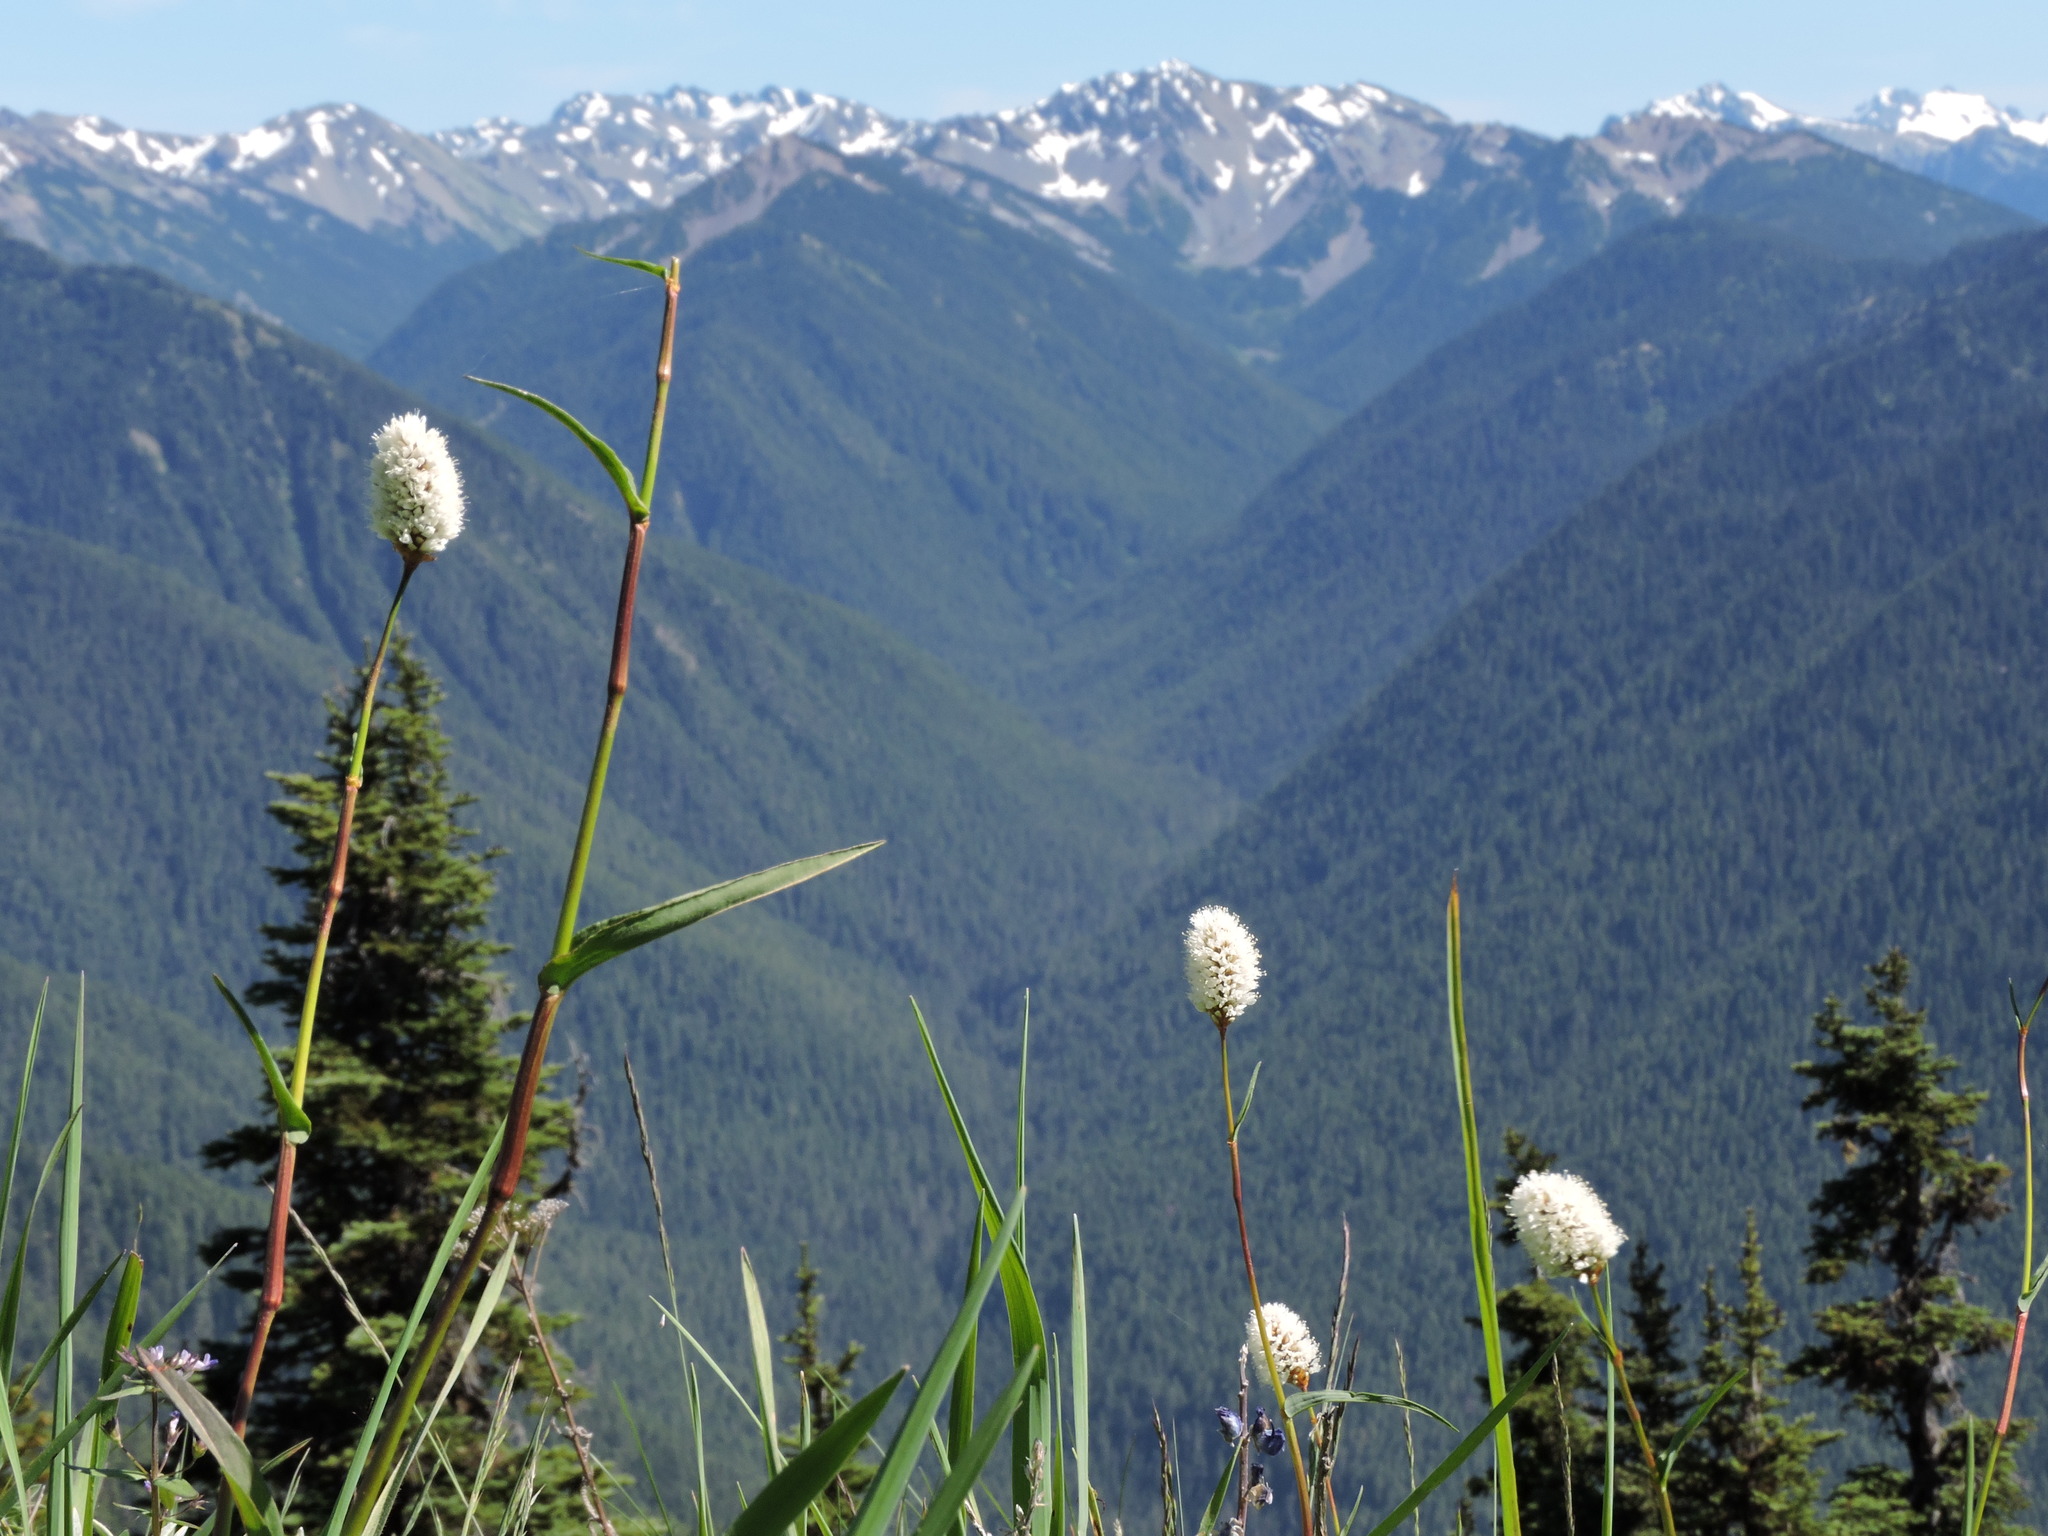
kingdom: Plantae
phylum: Tracheophyta
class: Magnoliopsida
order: Caryophyllales
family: Polygonaceae
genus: Bistorta
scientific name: Bistorta bistortoides
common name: American bistort
